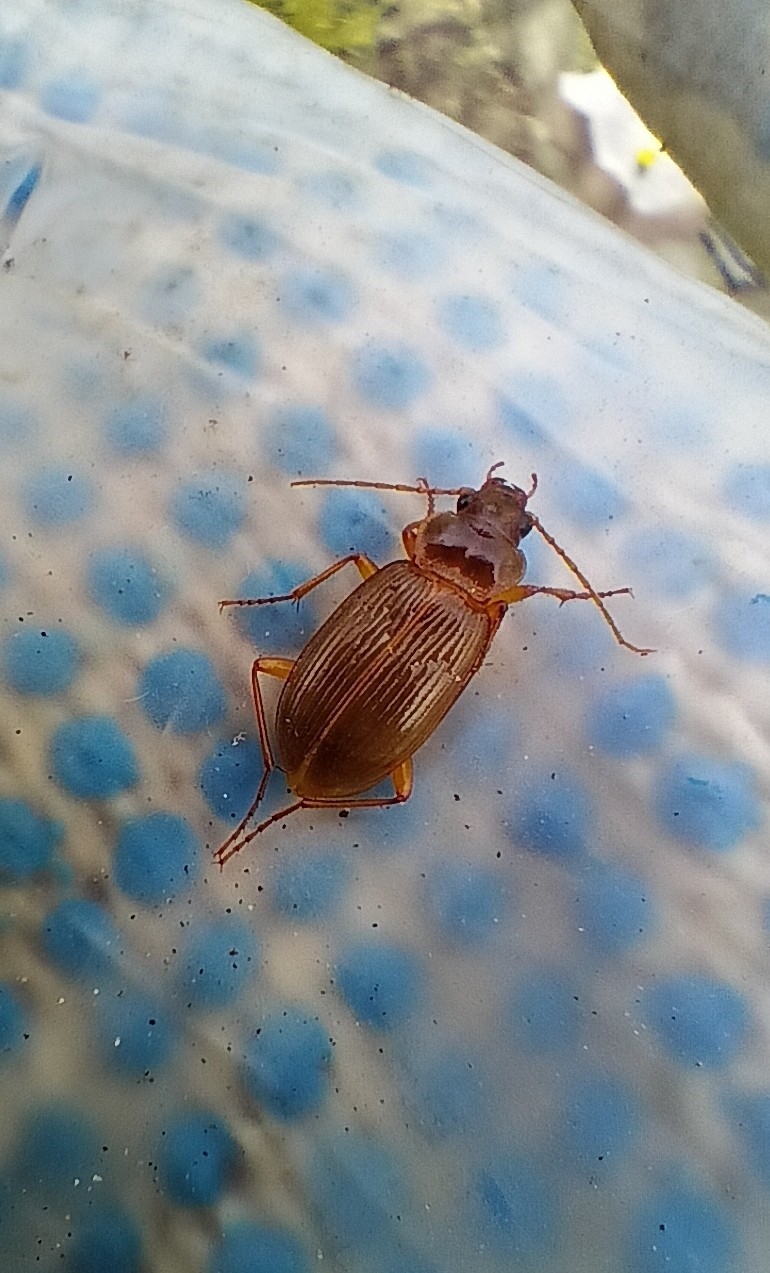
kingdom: Animalia
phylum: Arthropoda
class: Insecta
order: Coleoptera
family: Carabidae
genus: Nebria
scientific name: Nebria brevicollis
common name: Short-necked gazelle beetle
